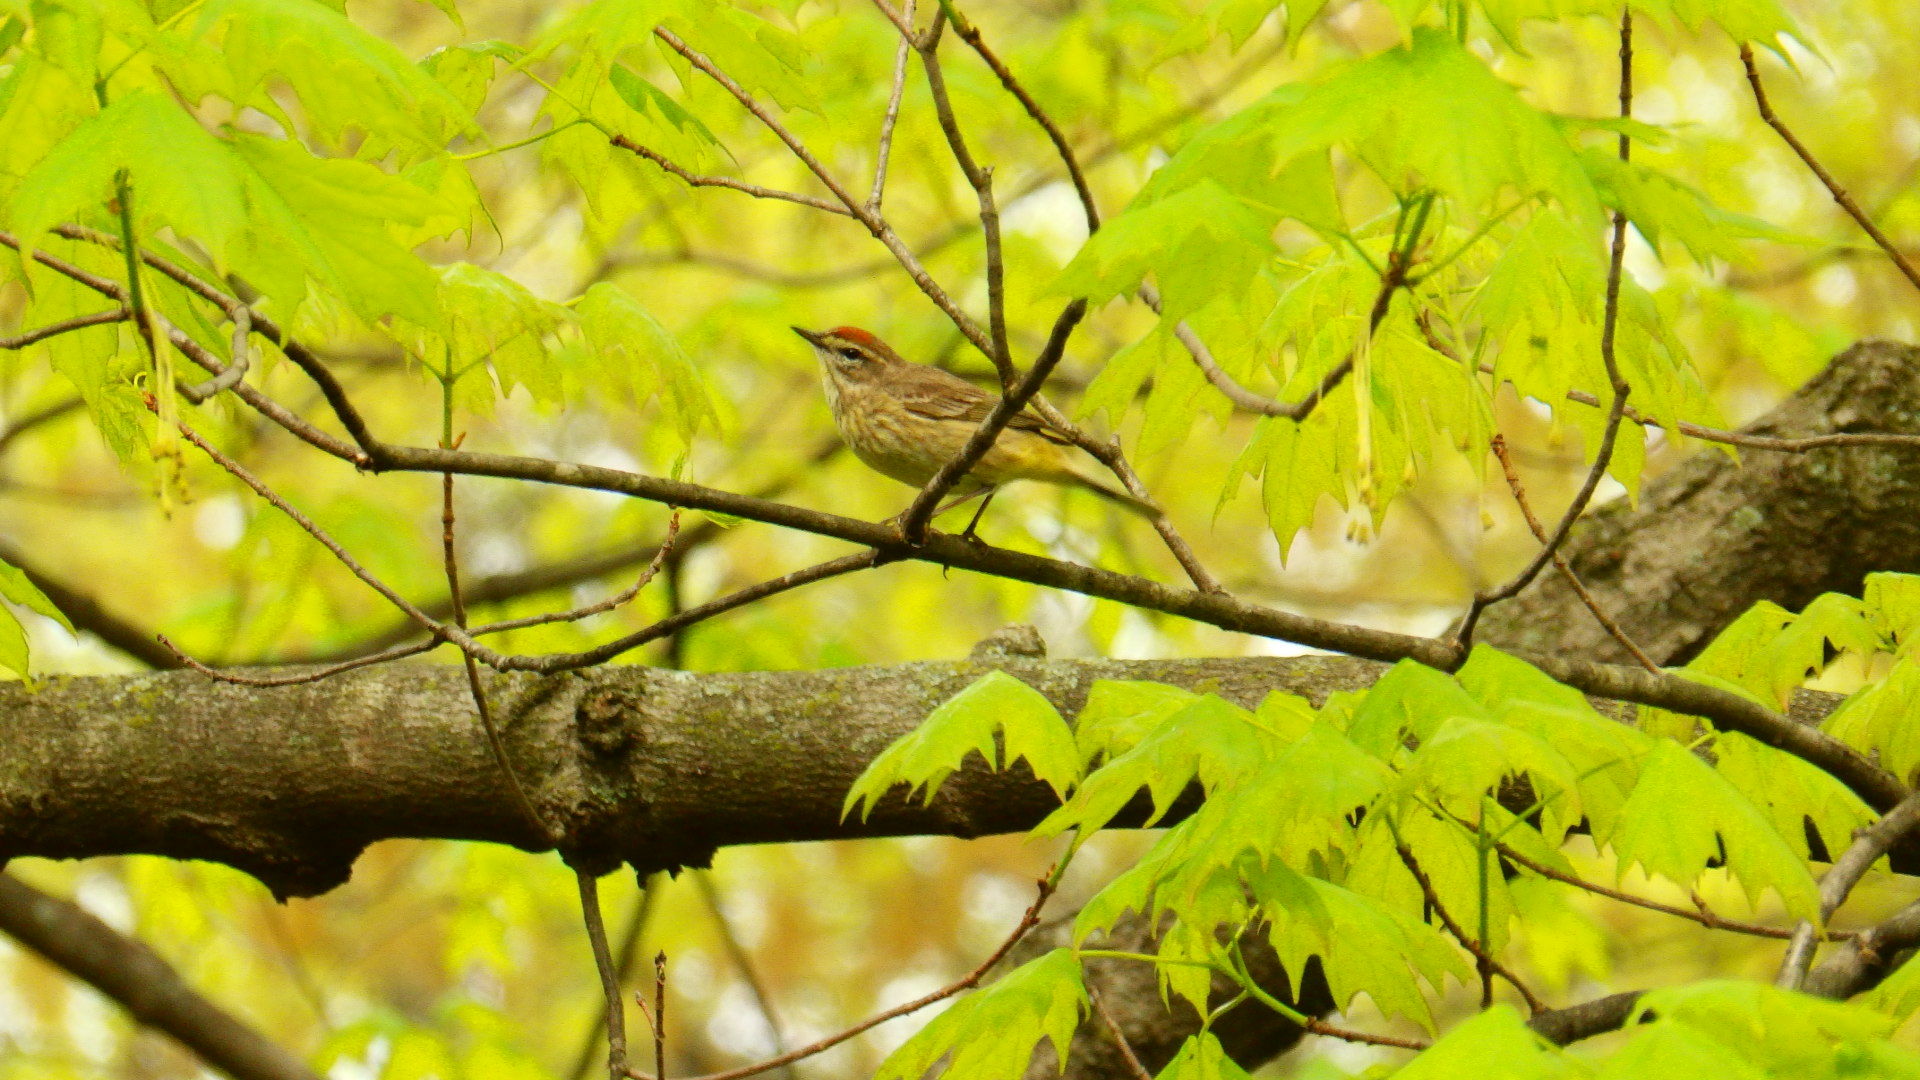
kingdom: Animalia
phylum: Chordata
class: Aves
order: Passeriformes
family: Parulidae
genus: Setophaga
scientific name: Setophaga palmarum
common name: Palm warbler
